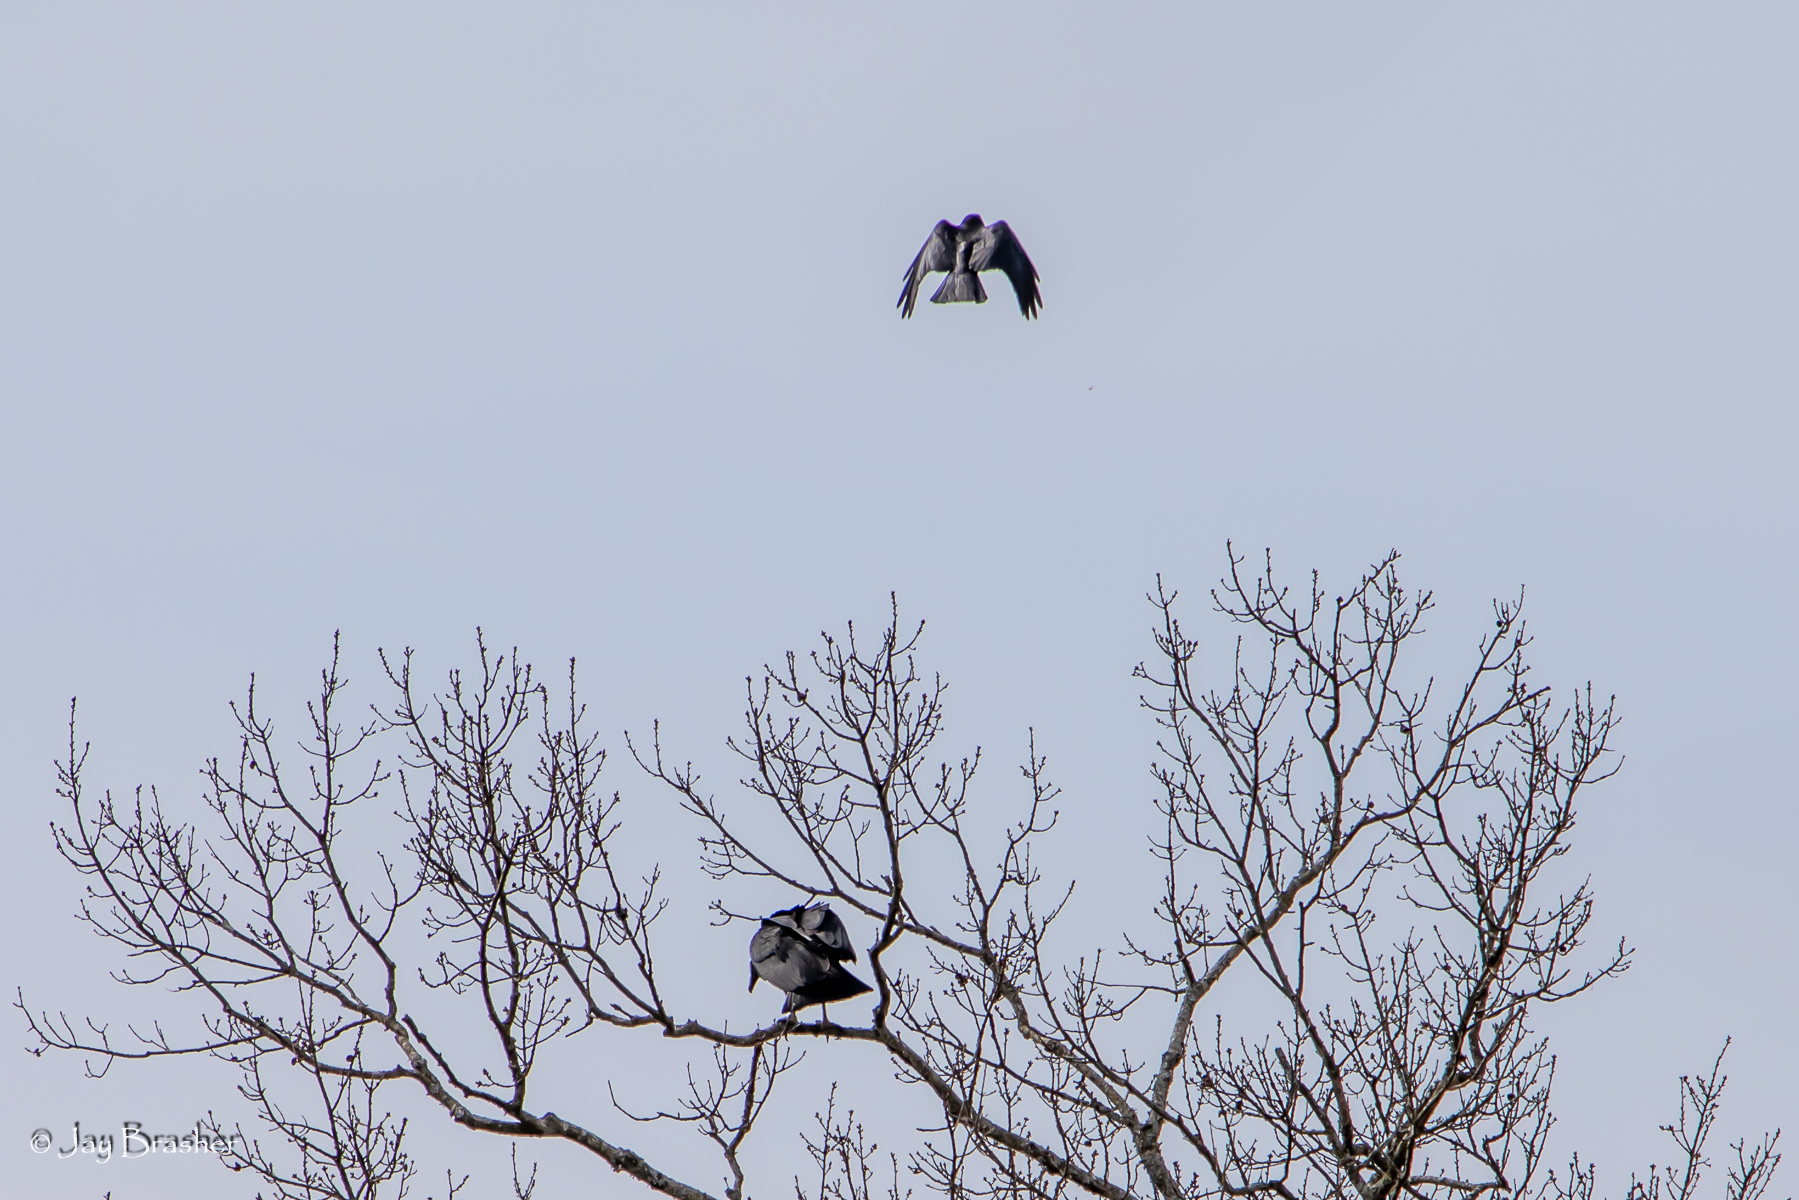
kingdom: Animalia
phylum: Chordata
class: Aves
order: Passeriformes
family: Corvidae
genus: Corvus
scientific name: Corvus brachyrhynchos
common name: American crow
